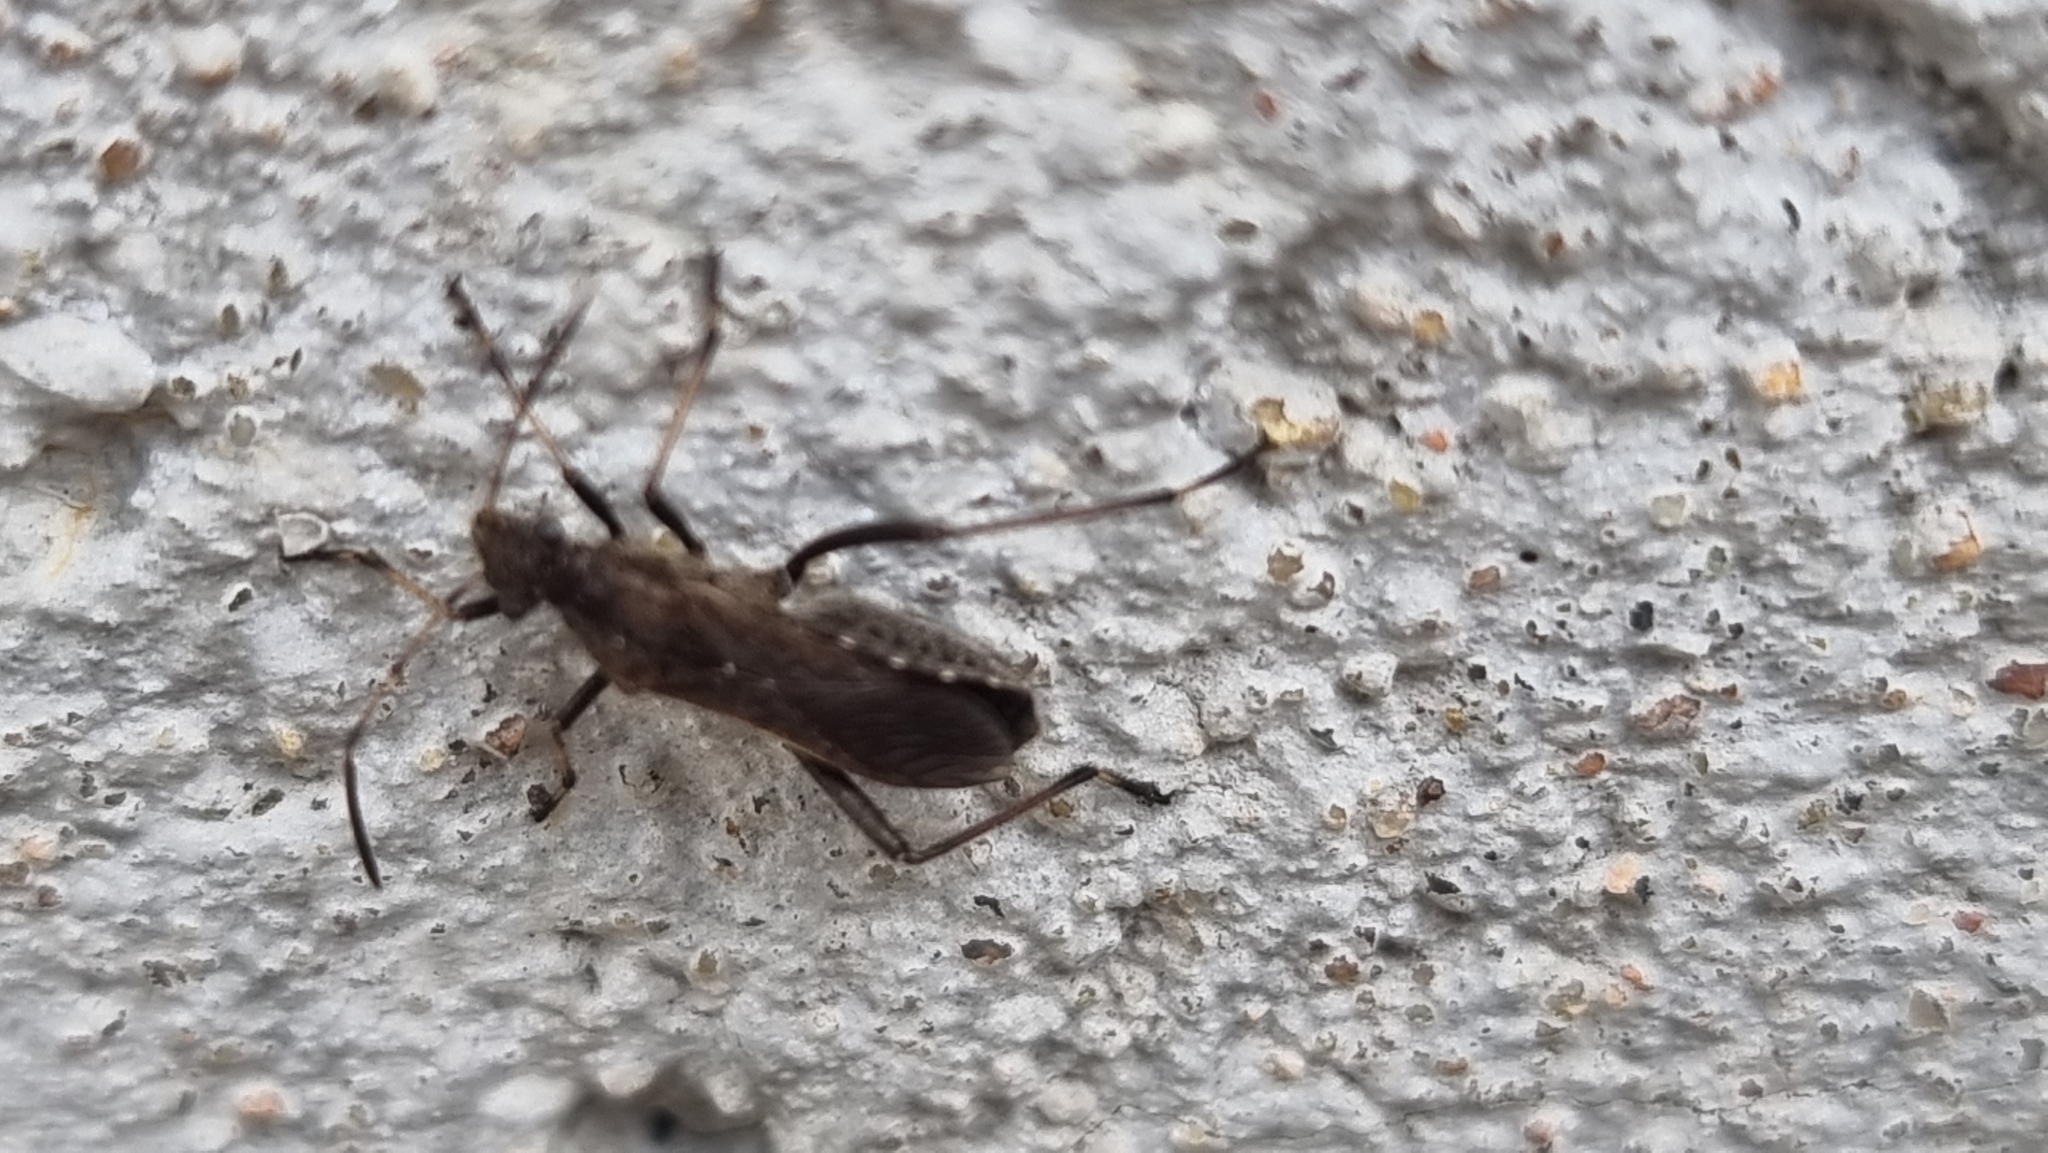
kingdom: Animalia
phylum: Arthropoda
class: Insecta
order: Hemiptera
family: Alydidae
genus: Alydus
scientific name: Alydus calcaratus
